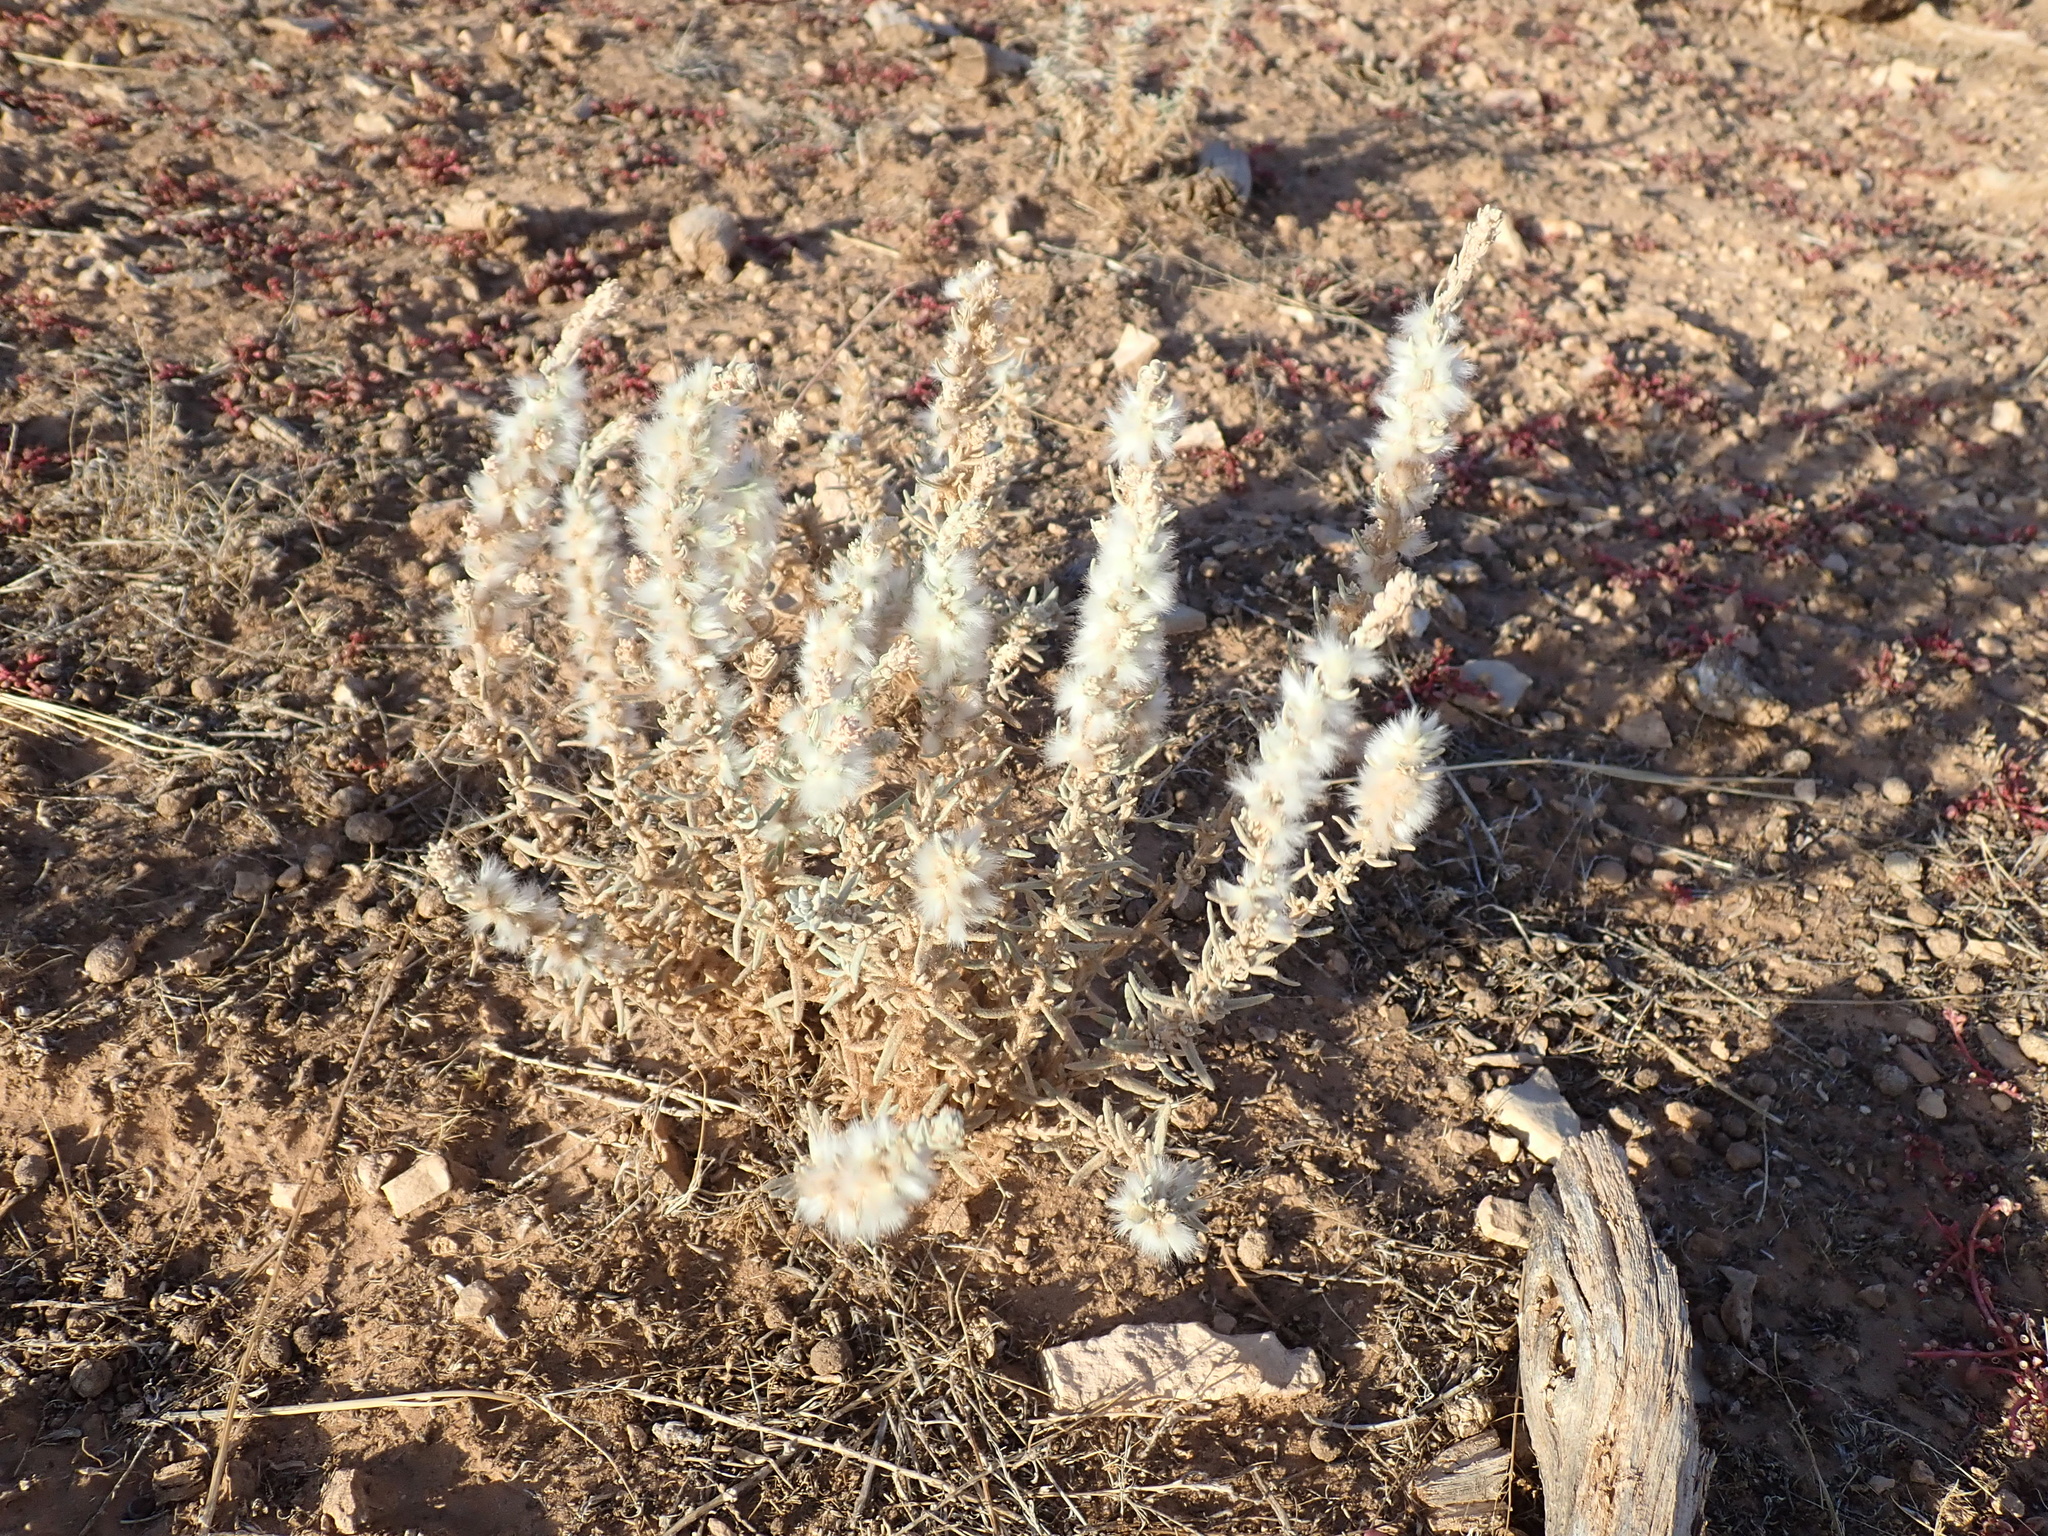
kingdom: Plantae
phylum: Tracheophyta
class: Magnoliopsida
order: Caryophyllales
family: Amaranthaceae
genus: Krascheninnikovia
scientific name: Krascheninnikovia lanata
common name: Winterfat
